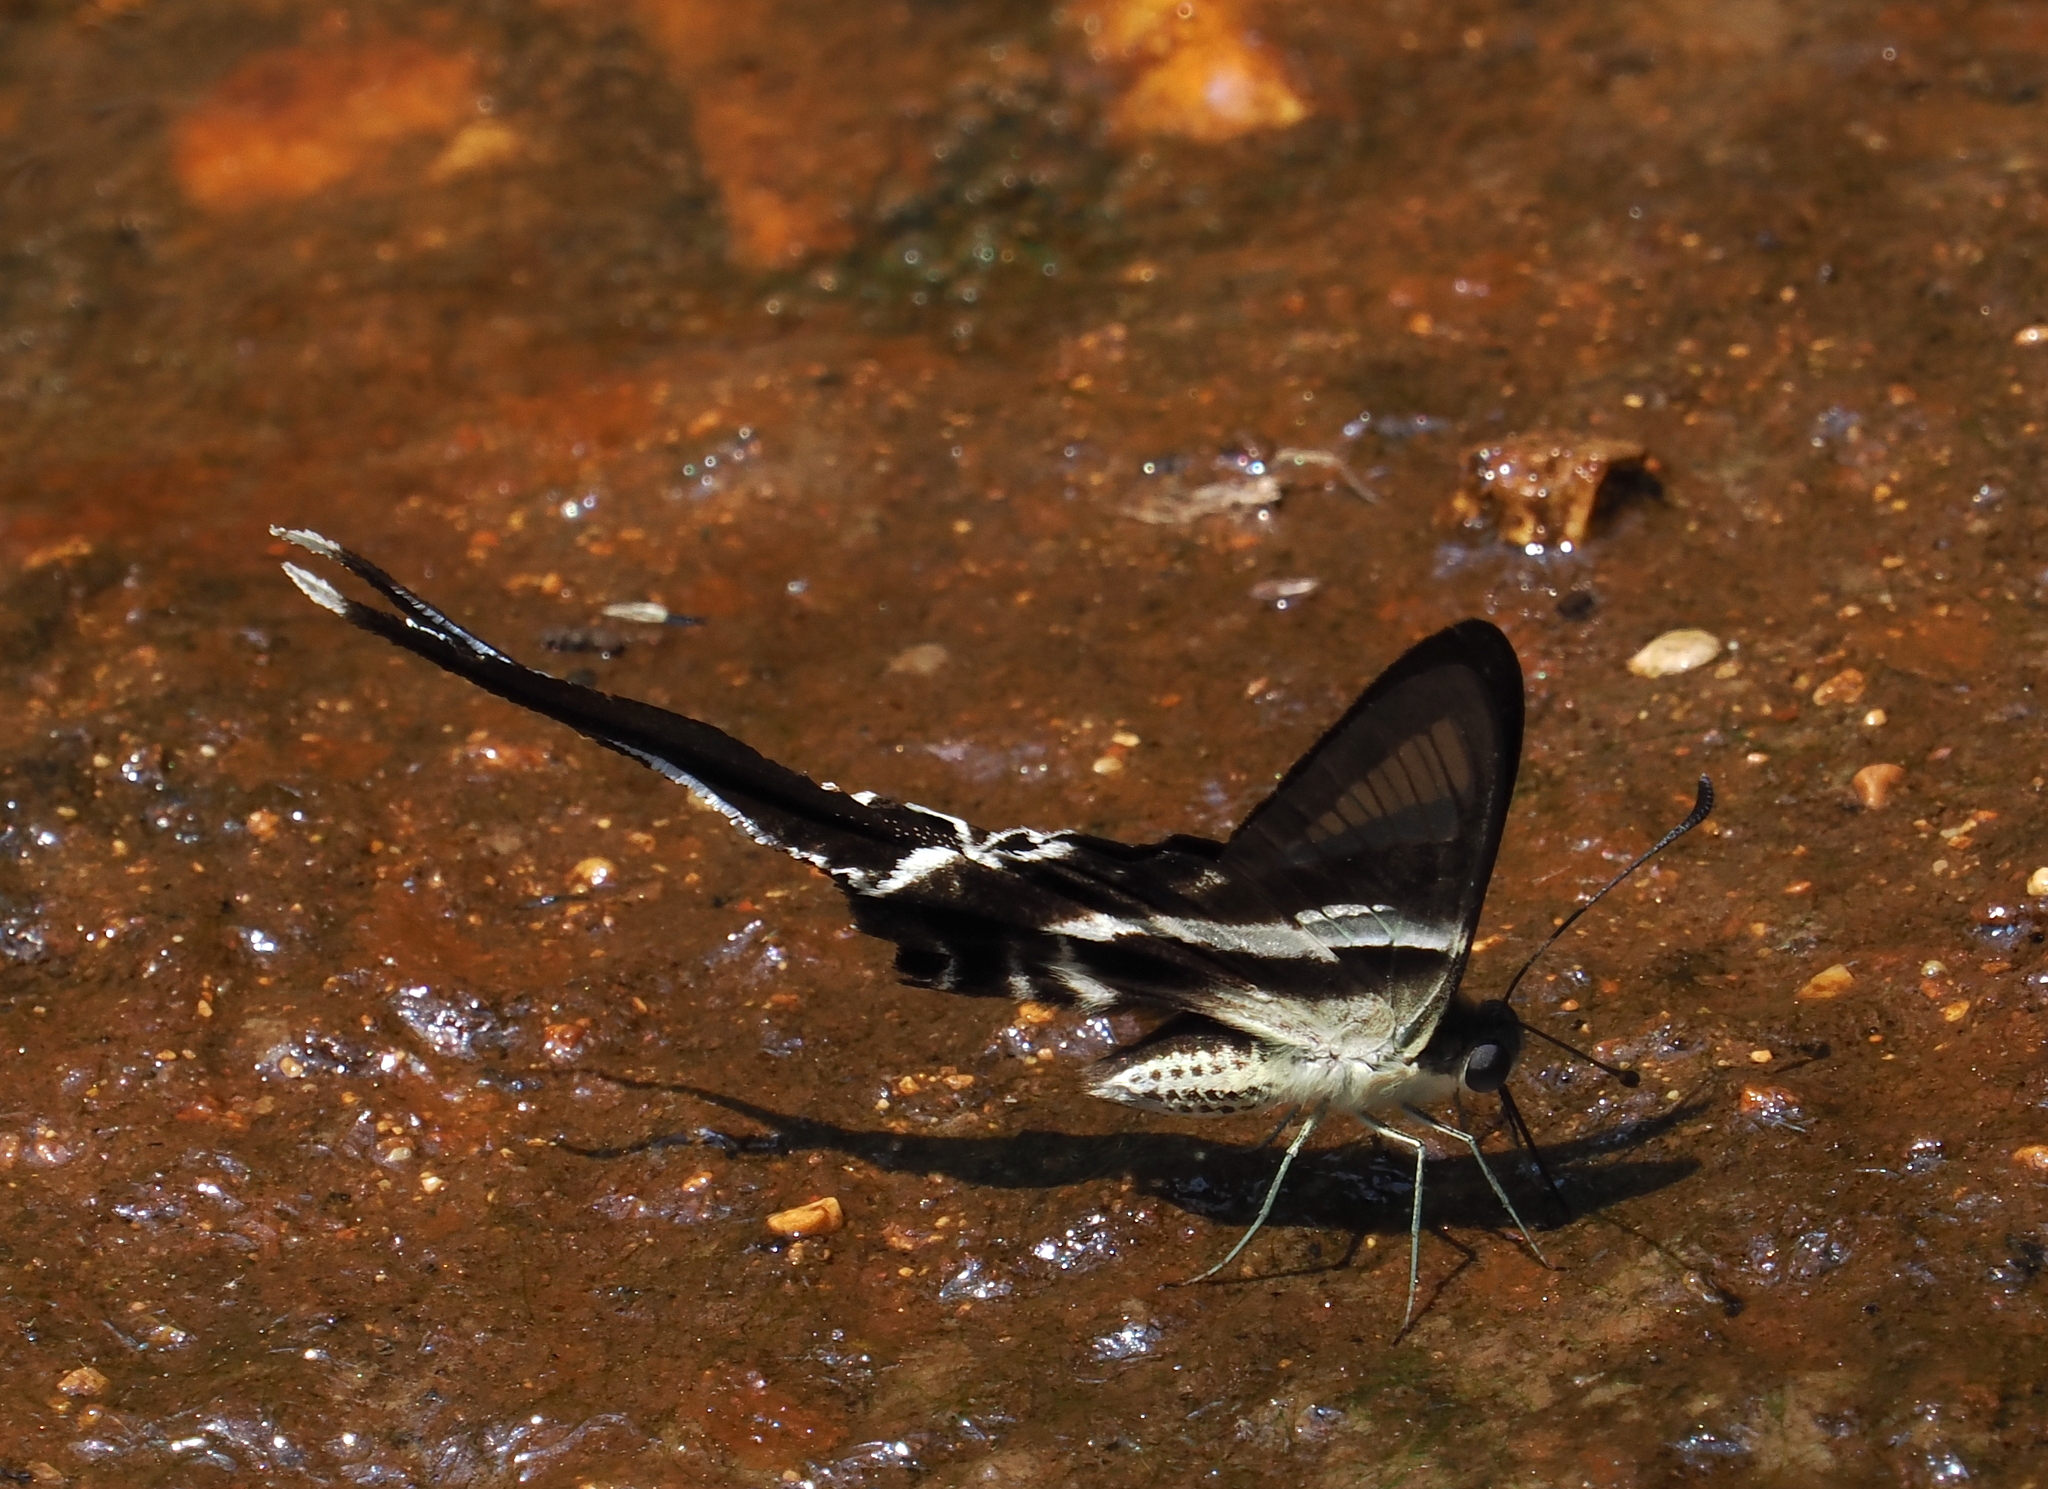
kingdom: Animalia
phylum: Arthropoda
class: Insecta
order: Lepidoptera
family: Papilionidae
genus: Lamproptera
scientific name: Lamproptera curius
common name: White dragontail
